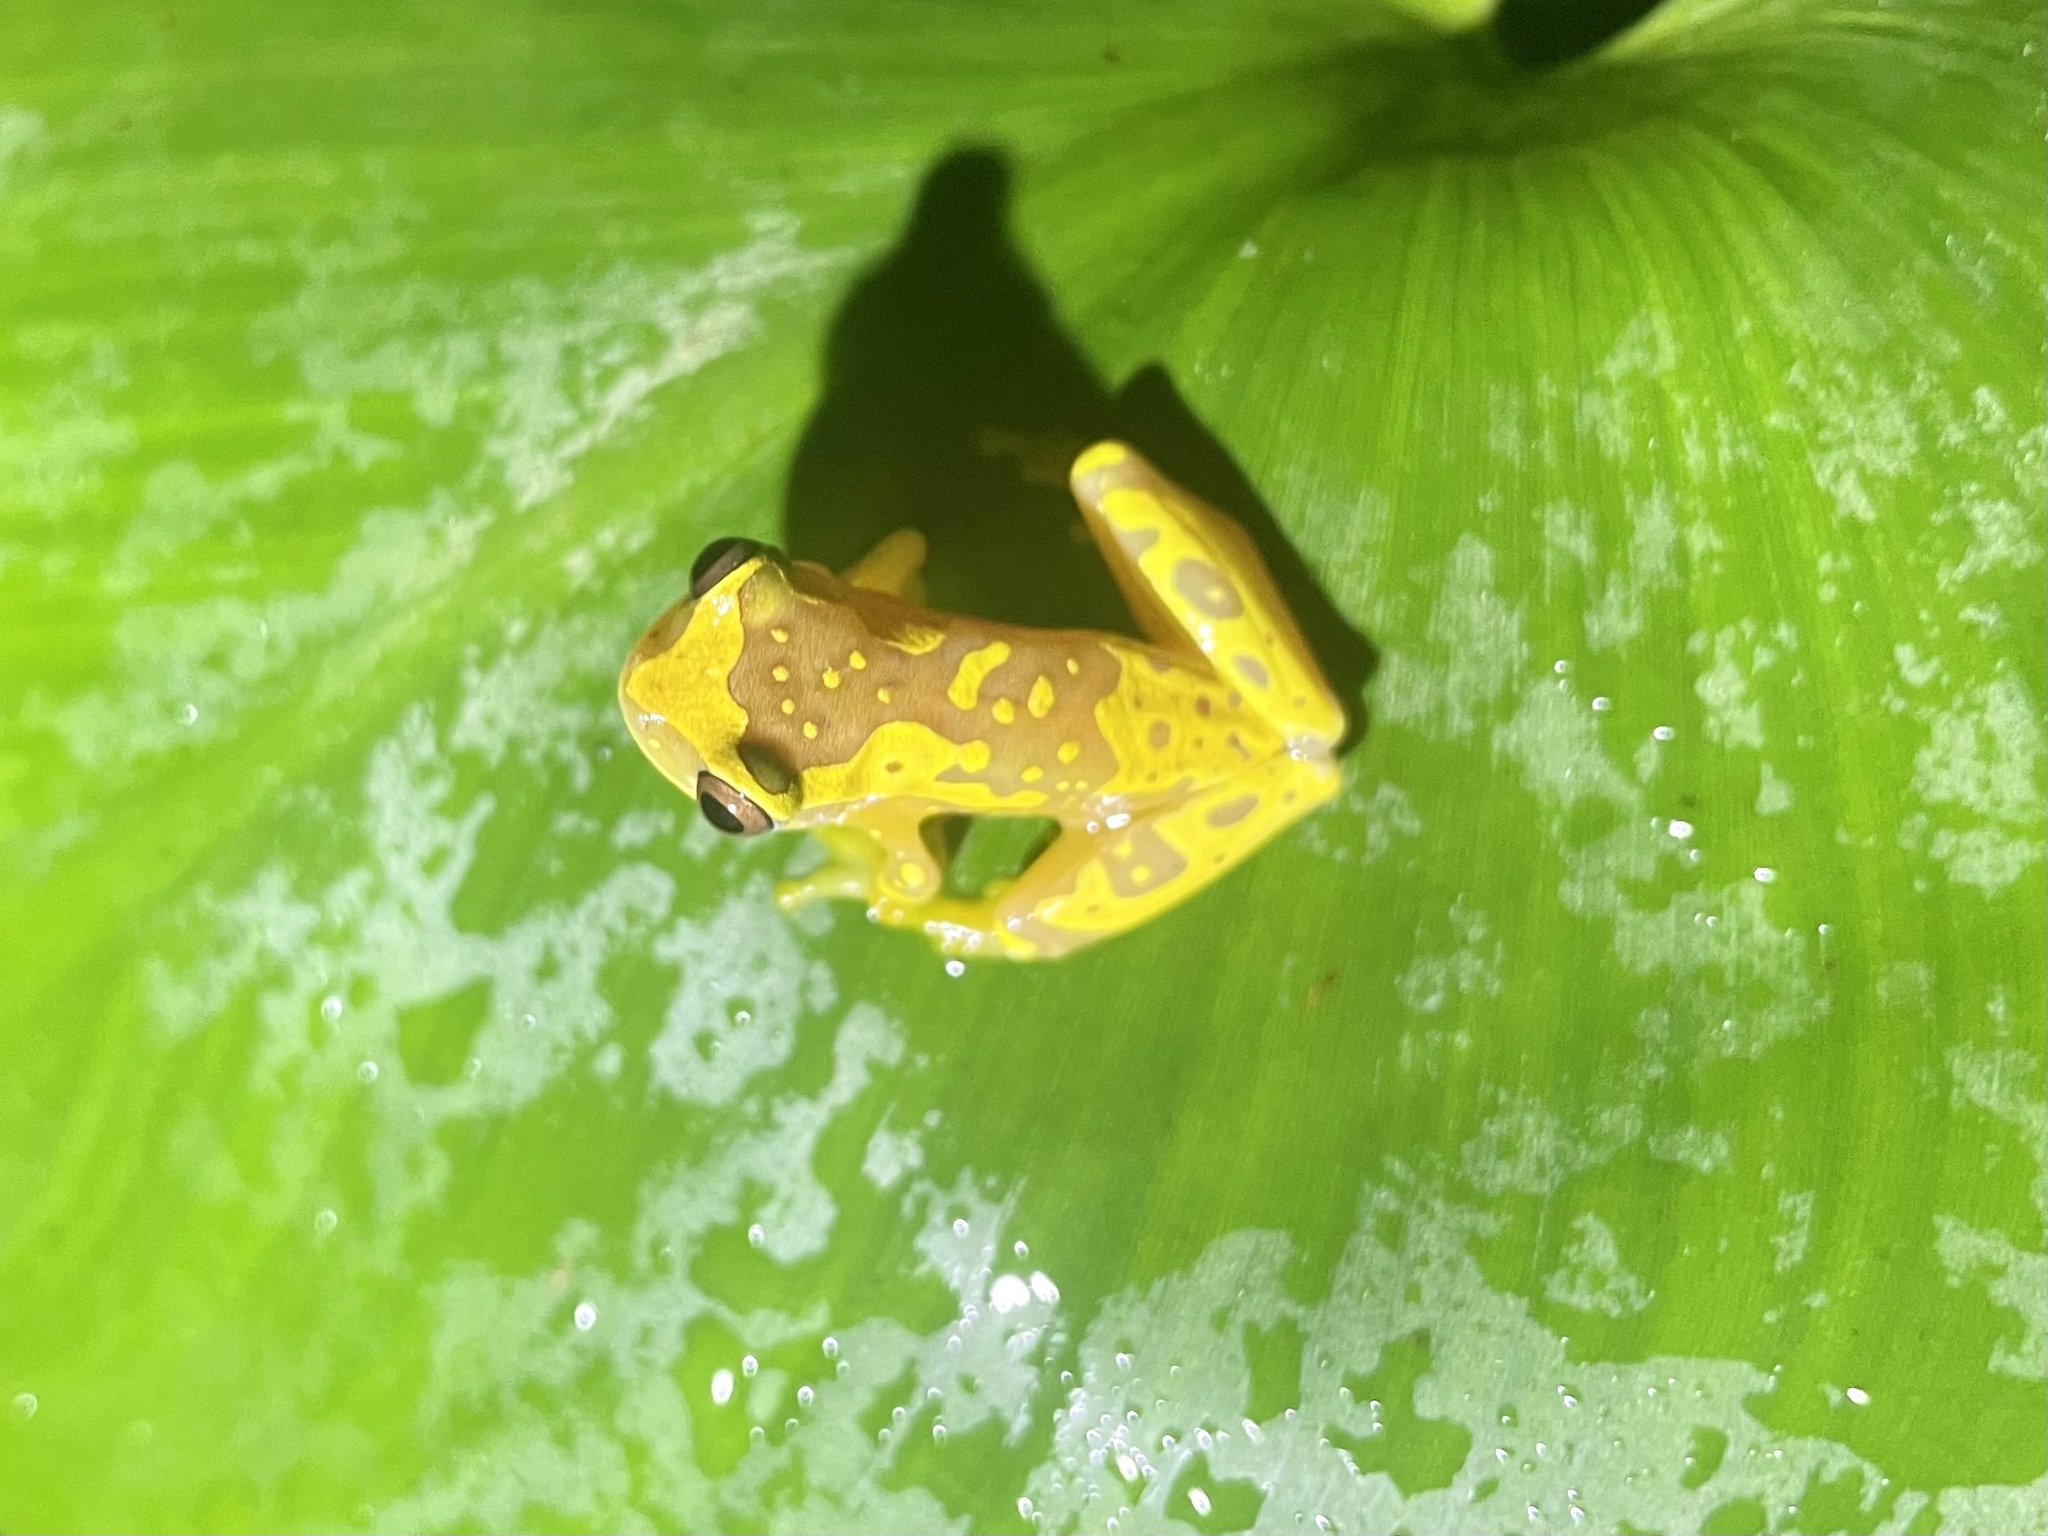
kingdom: Animalia
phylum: Chordata
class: Amphibia
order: Anura
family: Hylidae
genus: Dendropsophus
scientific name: Dendropsophus ebraccatus
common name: Hourglass treefrog
